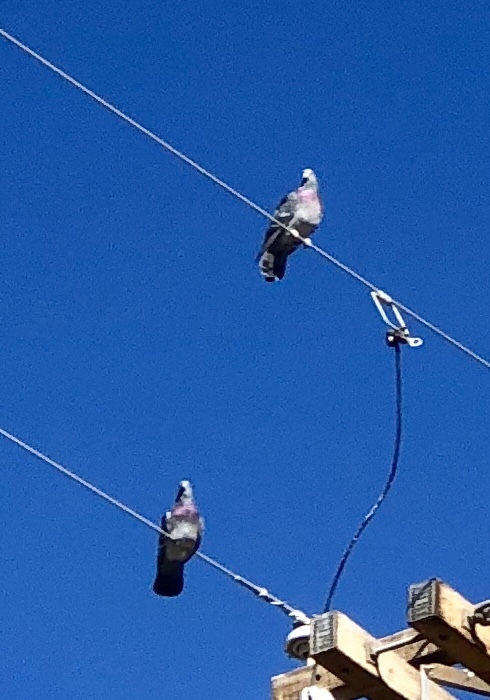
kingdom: Animalia
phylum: Chordata
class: Aves
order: Columbiformes
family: Columbidae
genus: Columba
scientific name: Columba livia
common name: Rock pigeon
